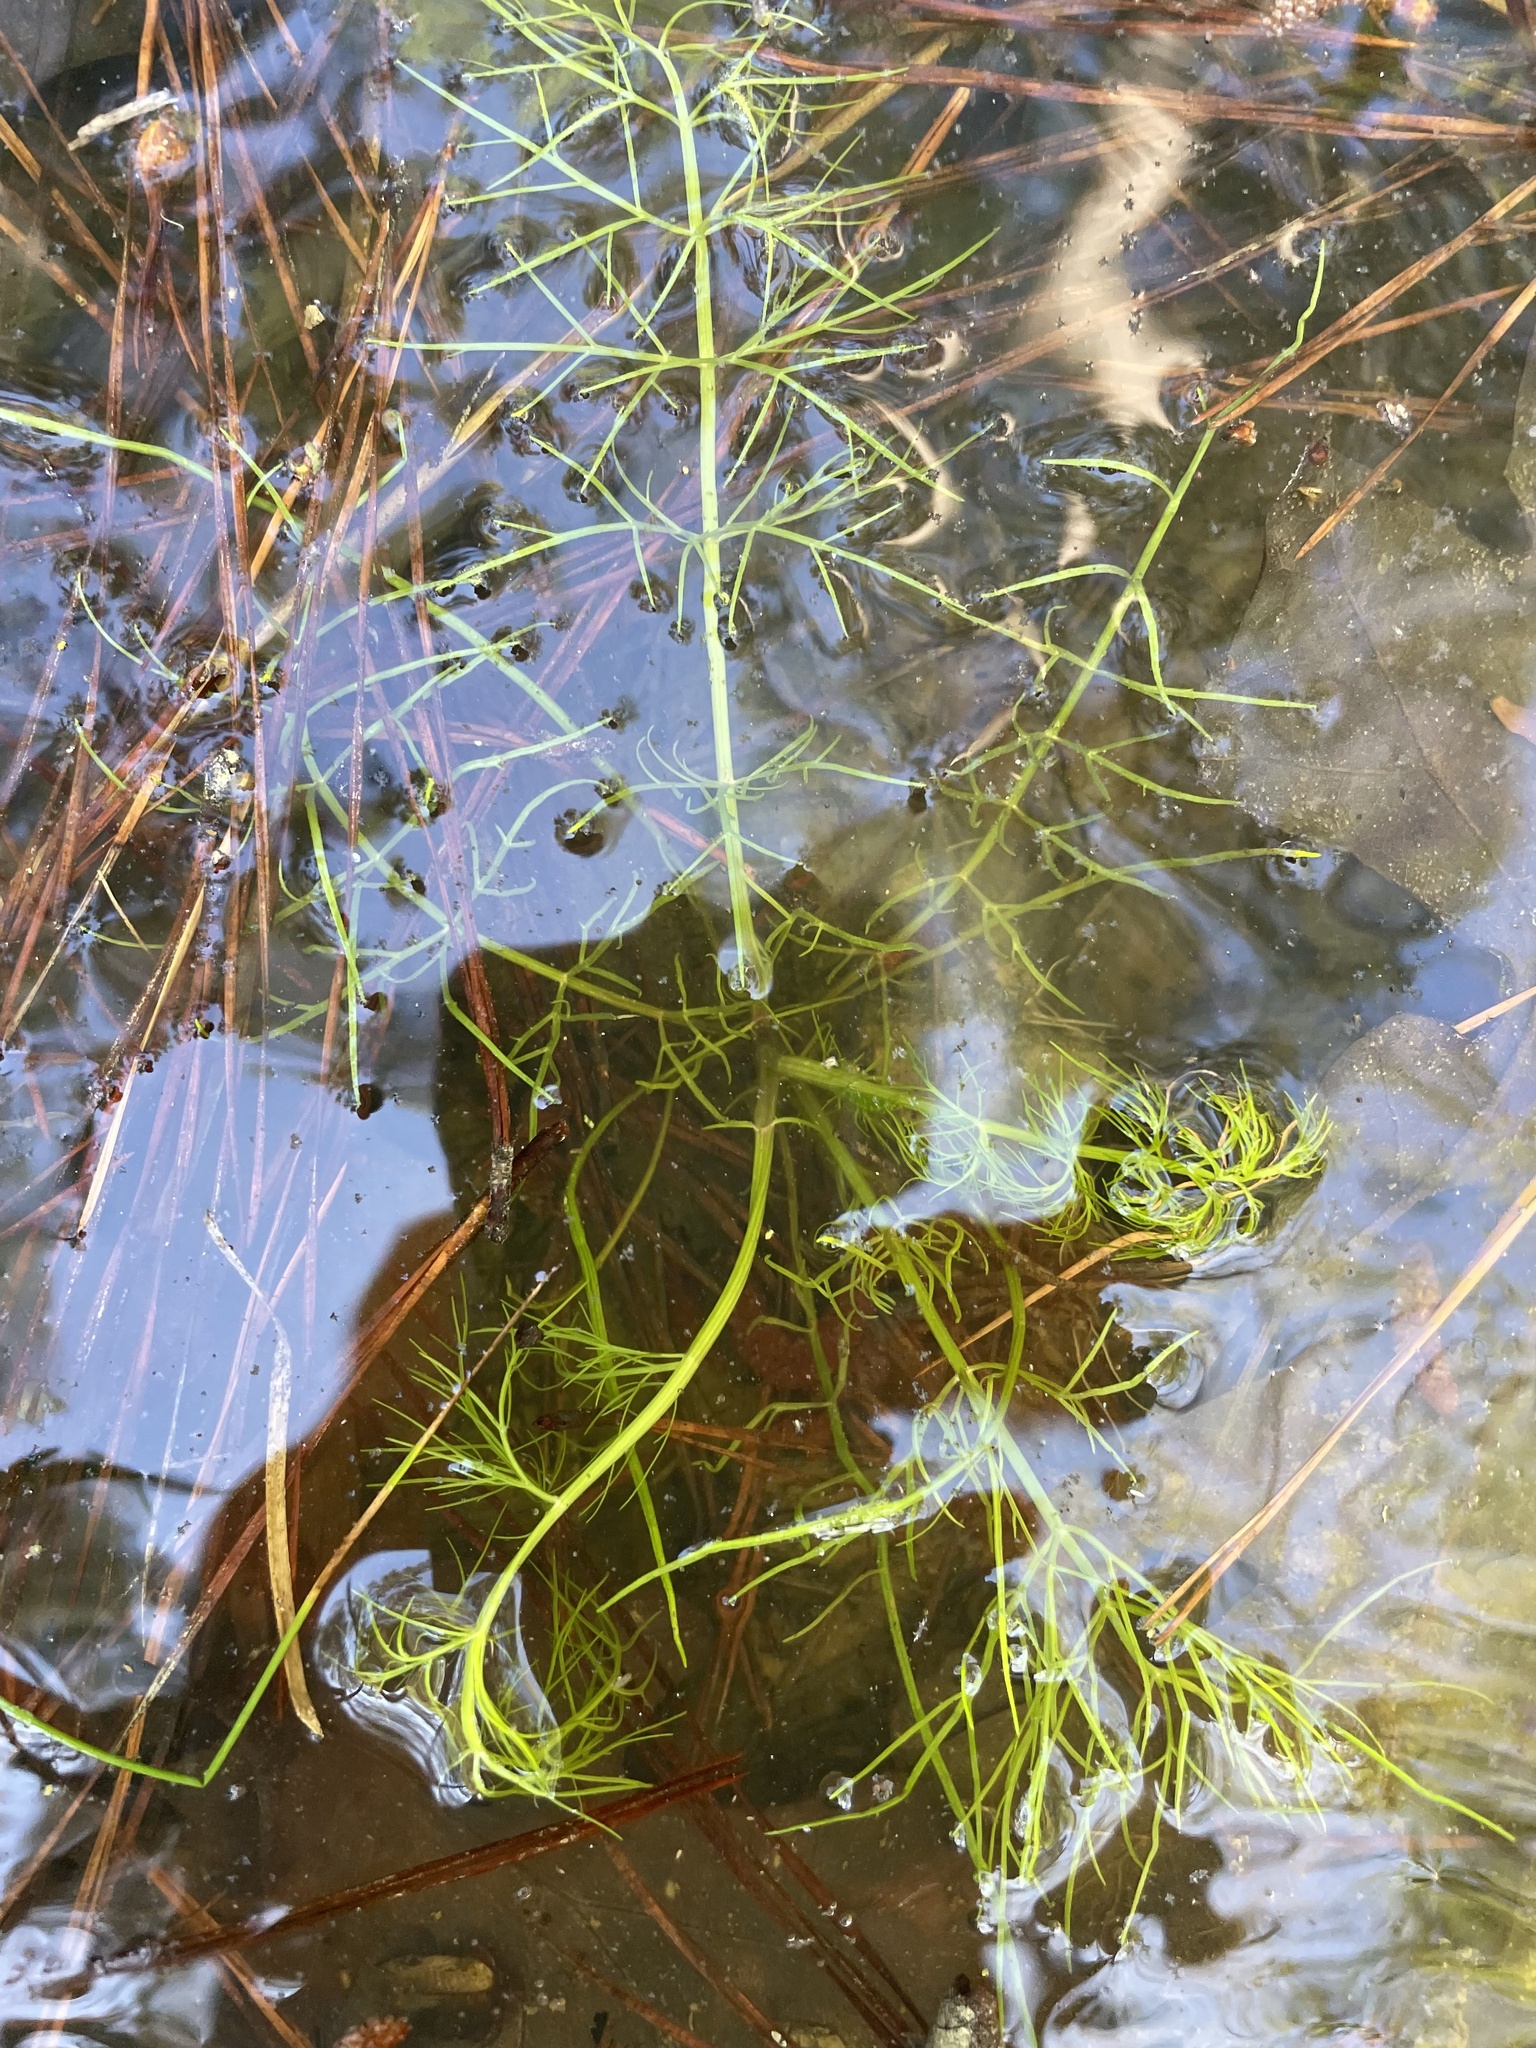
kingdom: Plantae
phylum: Tracheophyta
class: Magnoliopsida
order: Apiales
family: Apiaceae
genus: Ptilimnium
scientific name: Ptilimnium capillaceum
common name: Herbwilliam
